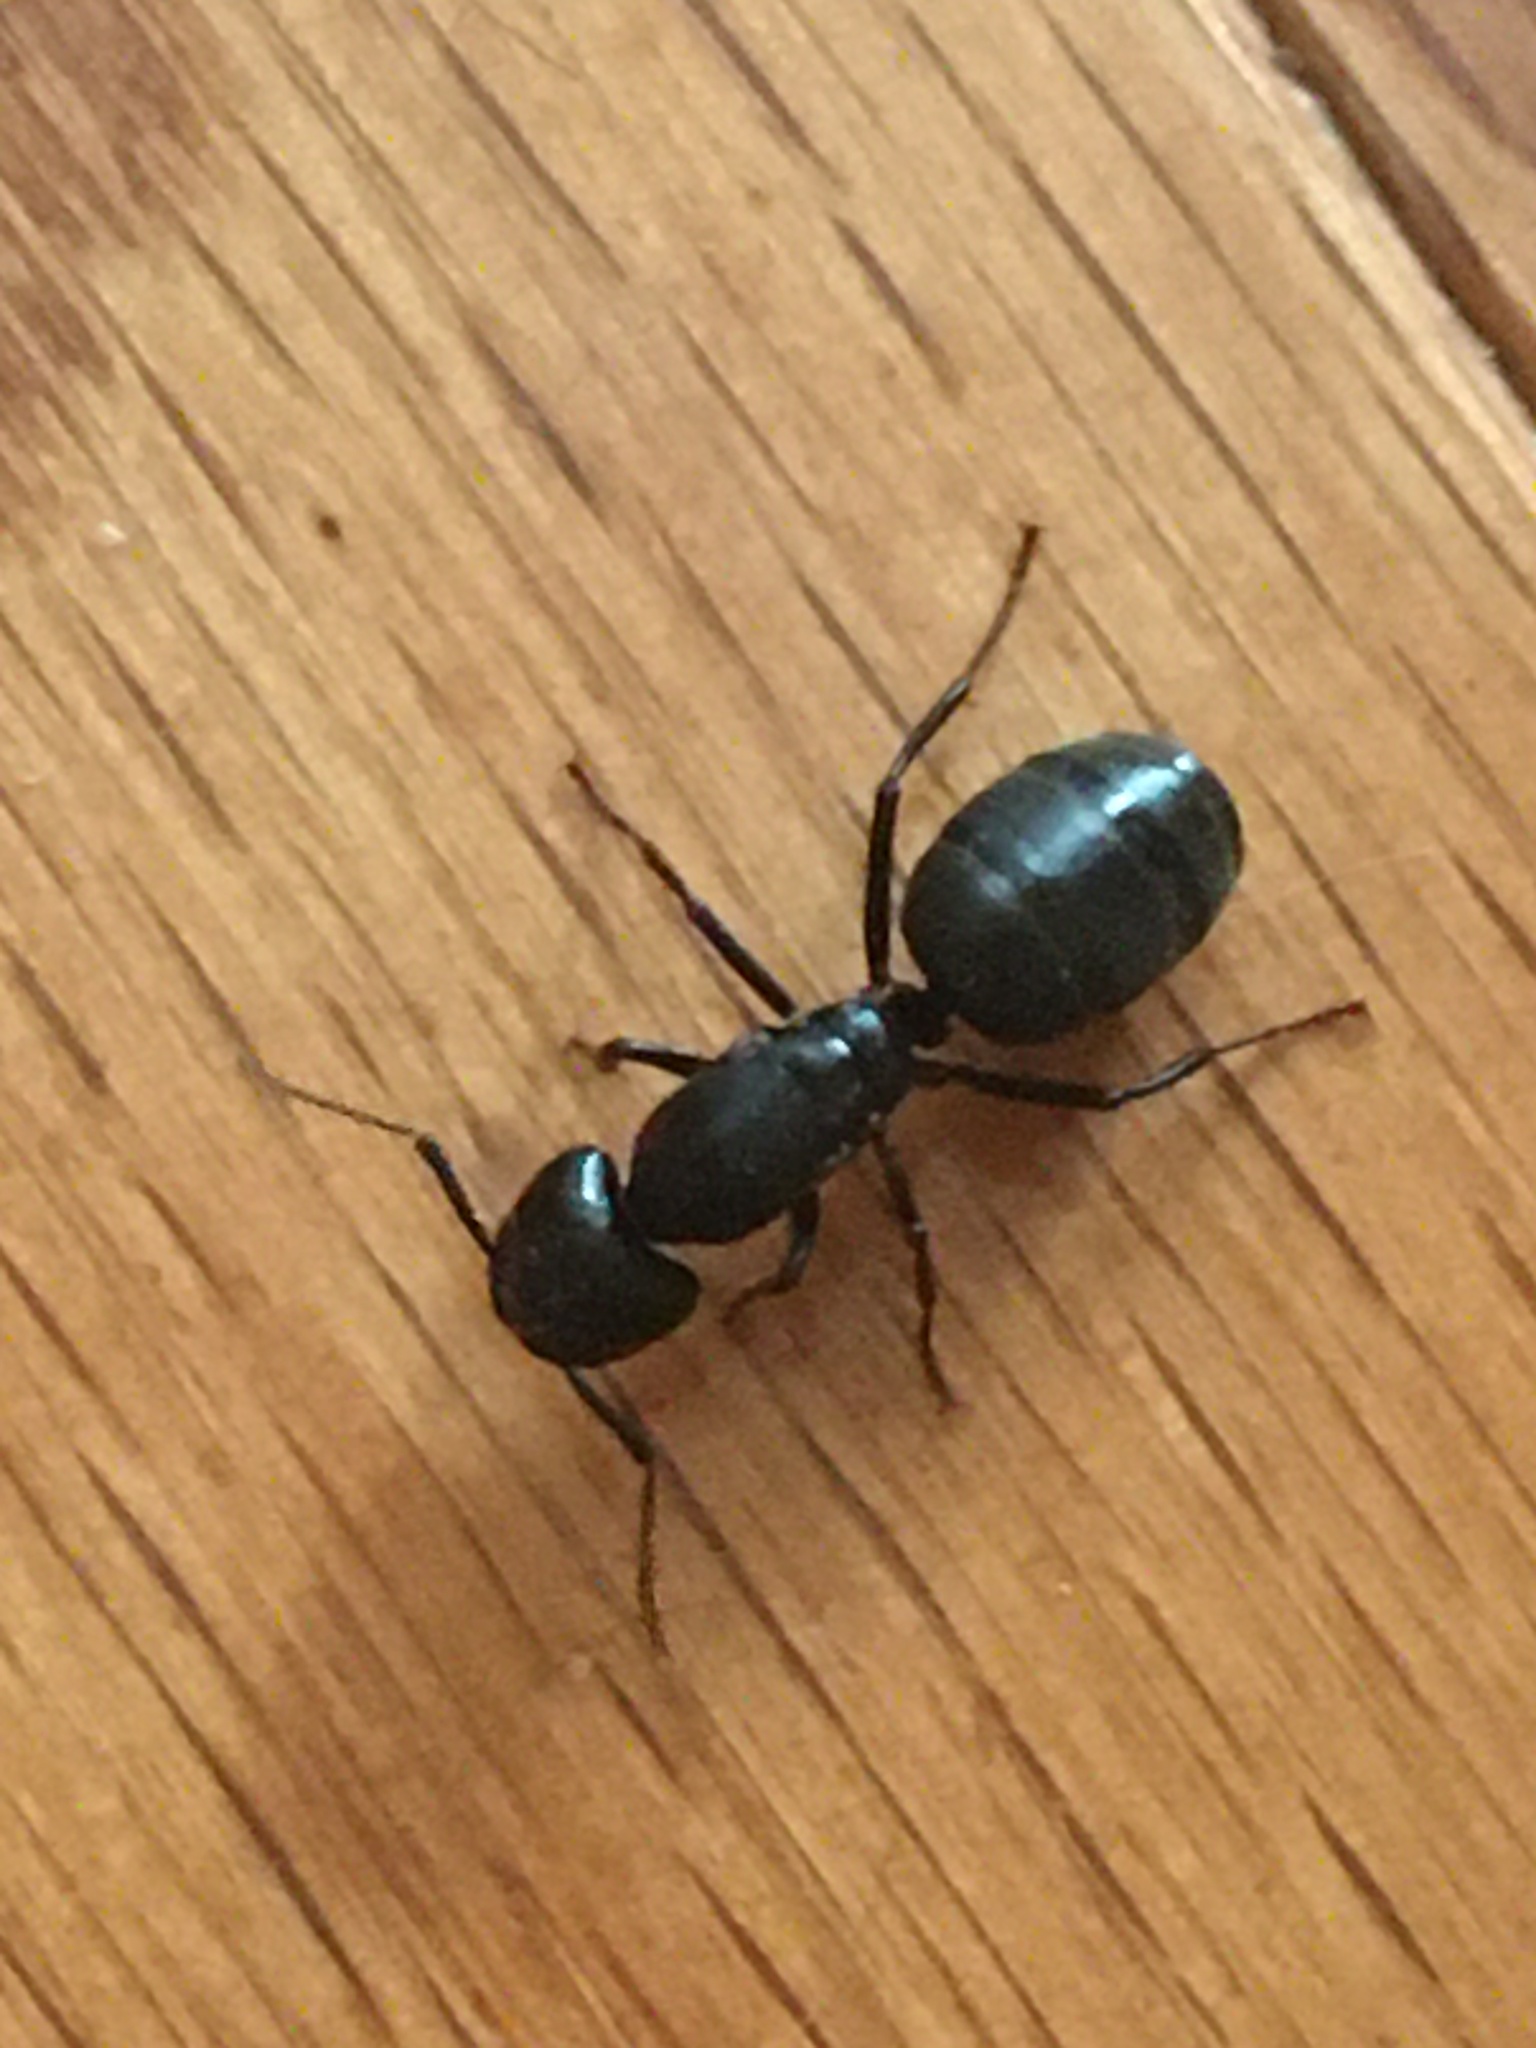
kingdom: Animalia
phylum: Arthropoda
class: Insecta
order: Hymenoptera
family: Formicidae
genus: Camponotus
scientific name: Camponotus pennsylvanicus
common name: Black carpenter ant
